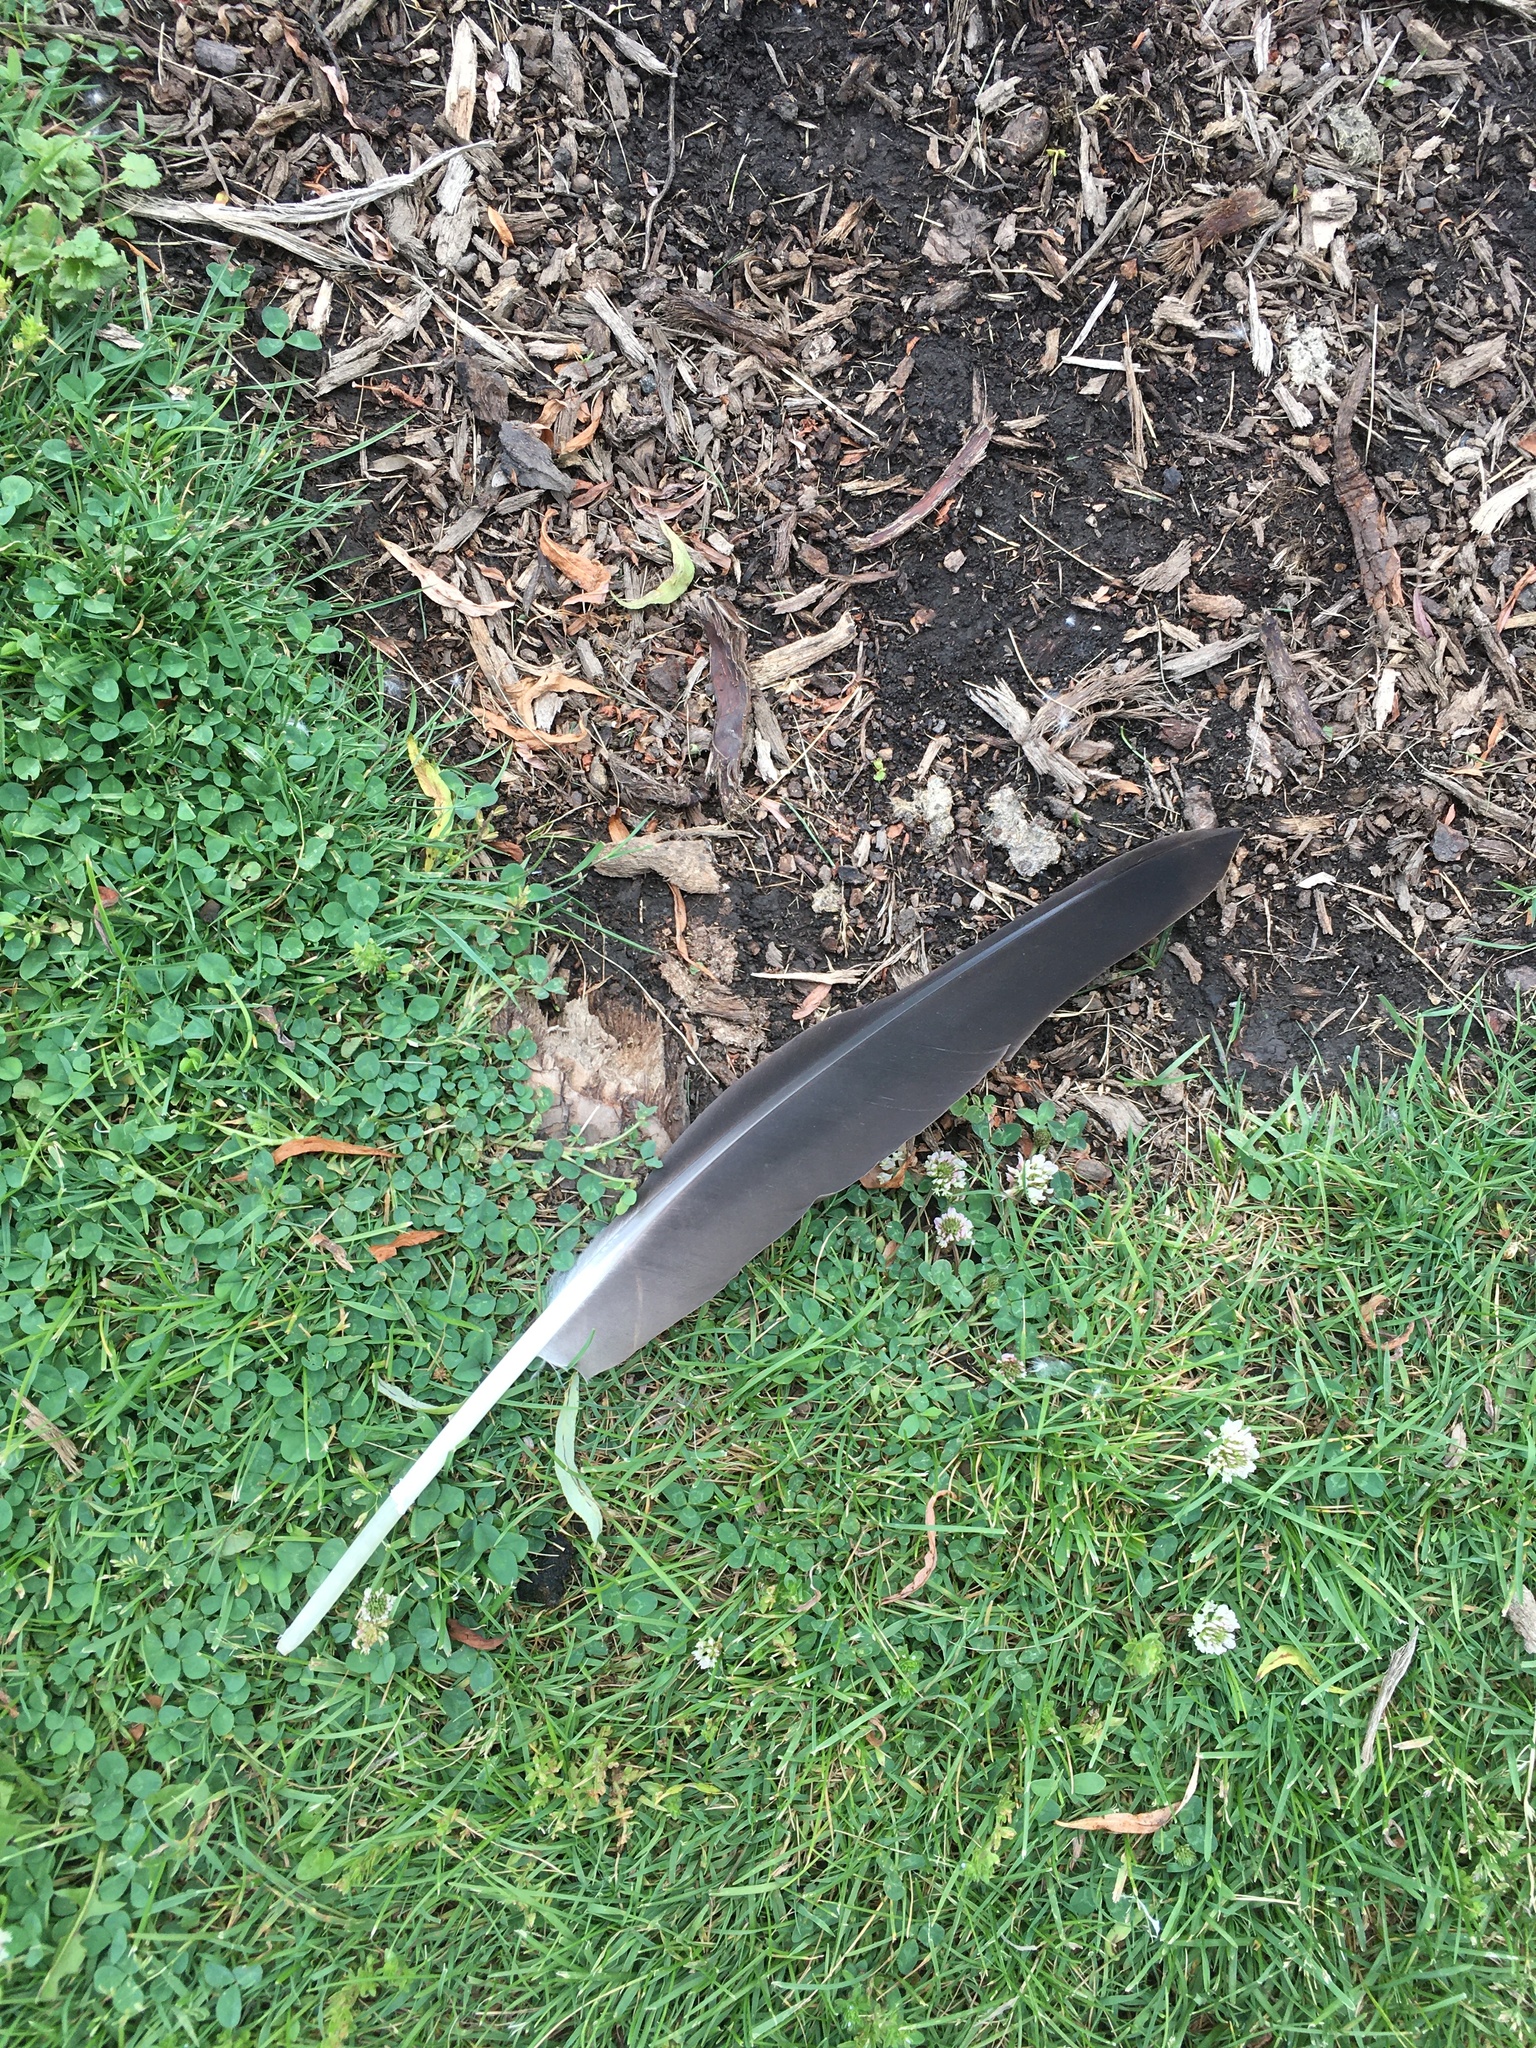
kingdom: Animalia
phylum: Chordata
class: Aves
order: Anseriformes
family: Anatidae
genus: Branta
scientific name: Branta canadensis
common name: Canada goose
